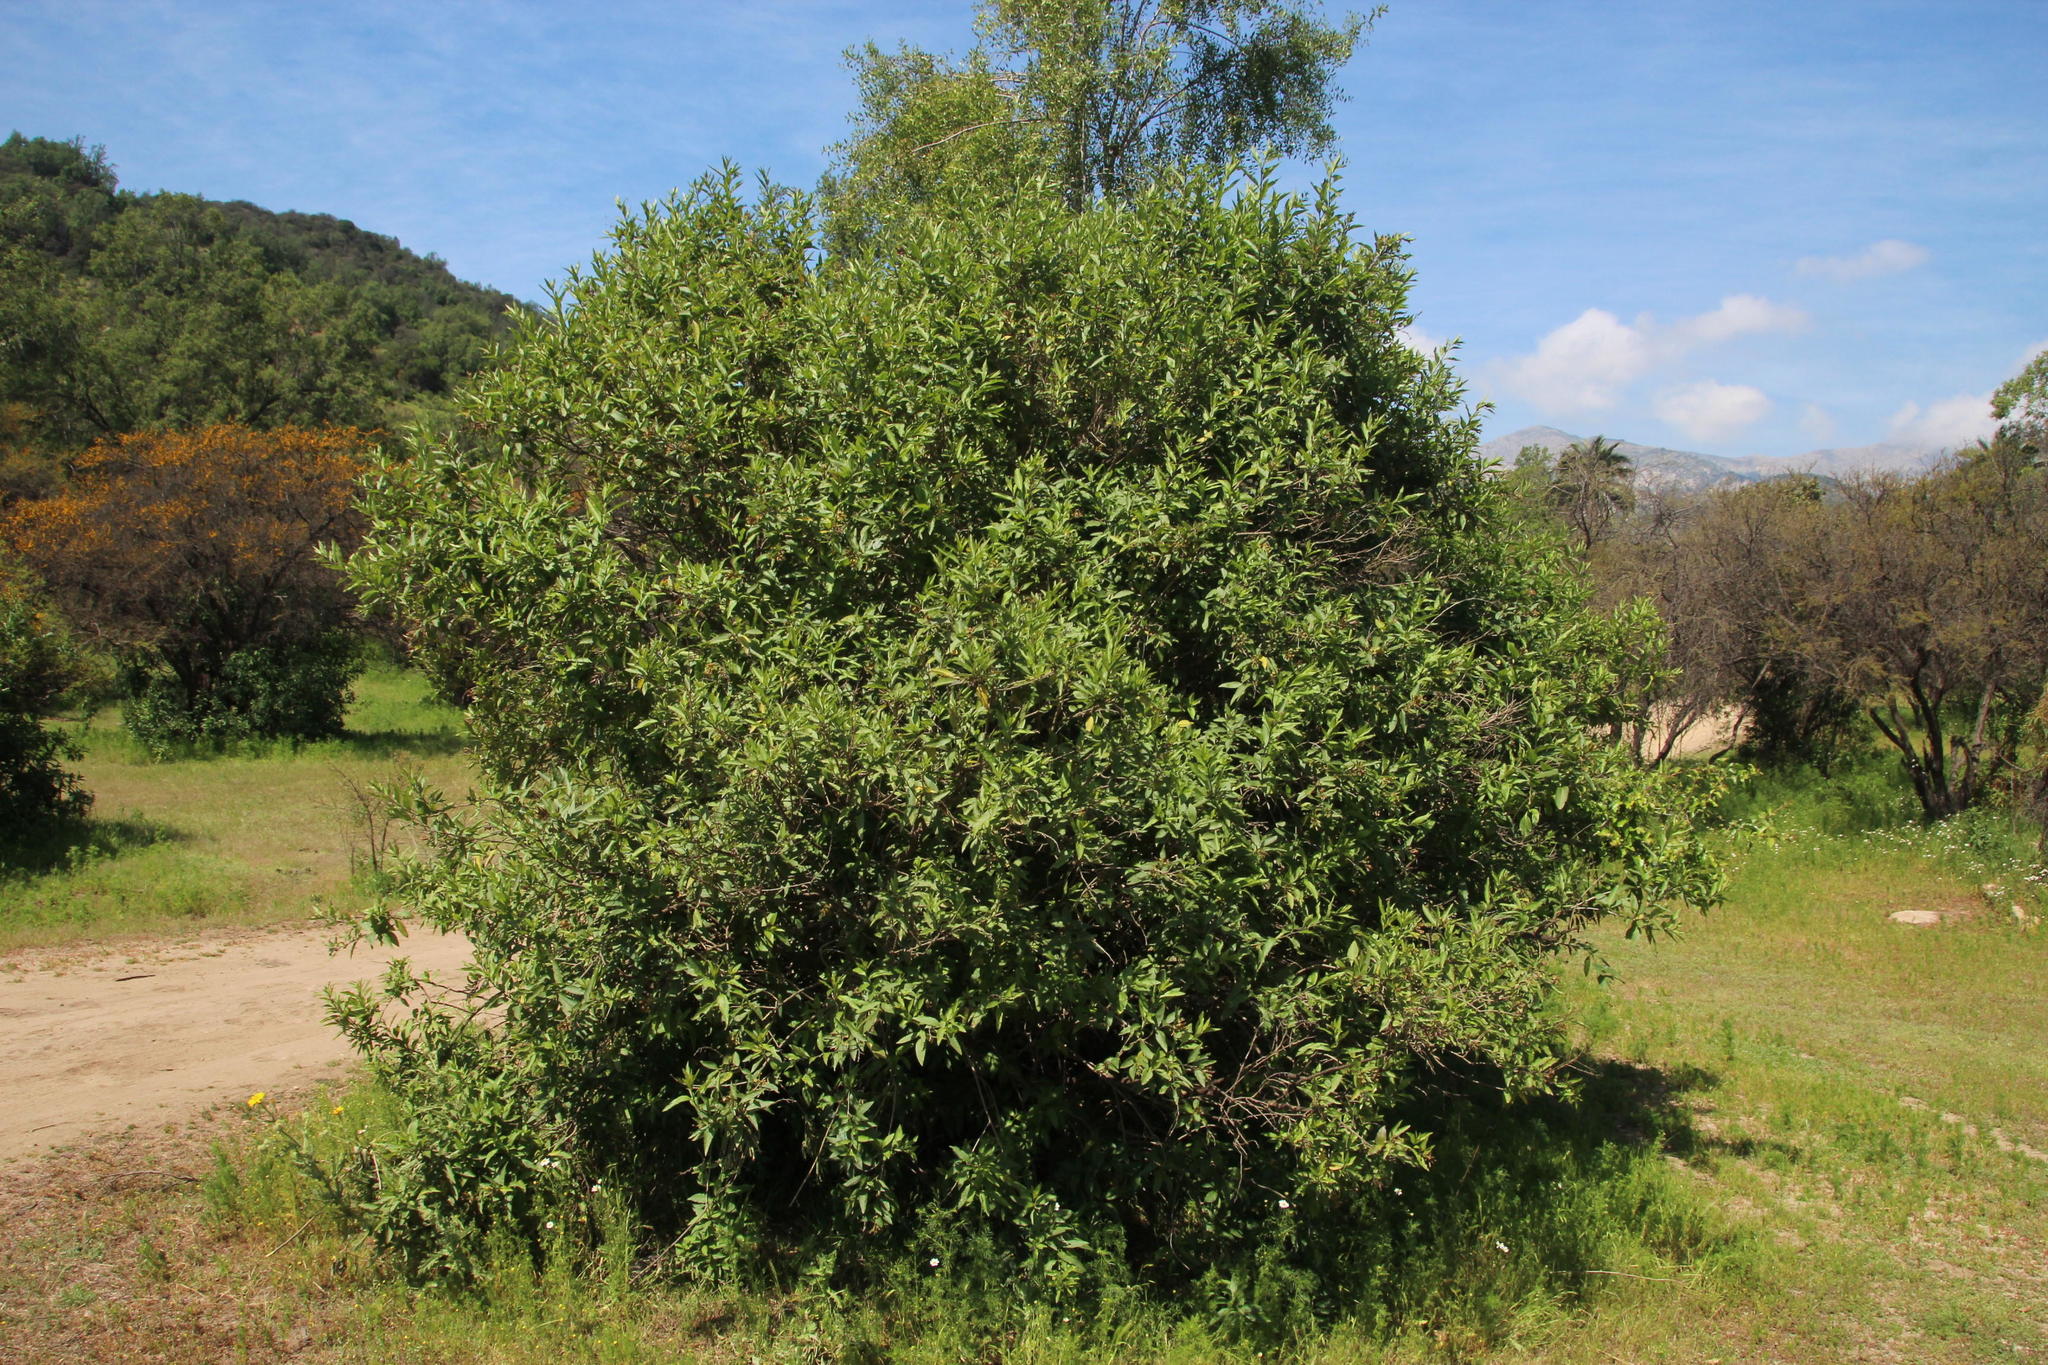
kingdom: Plantae
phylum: Tracheophyta
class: Magnoliopsida
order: Solanales
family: Solanaceae
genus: Cestrum
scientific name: Cestrum parqui
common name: Chilean cestrum
